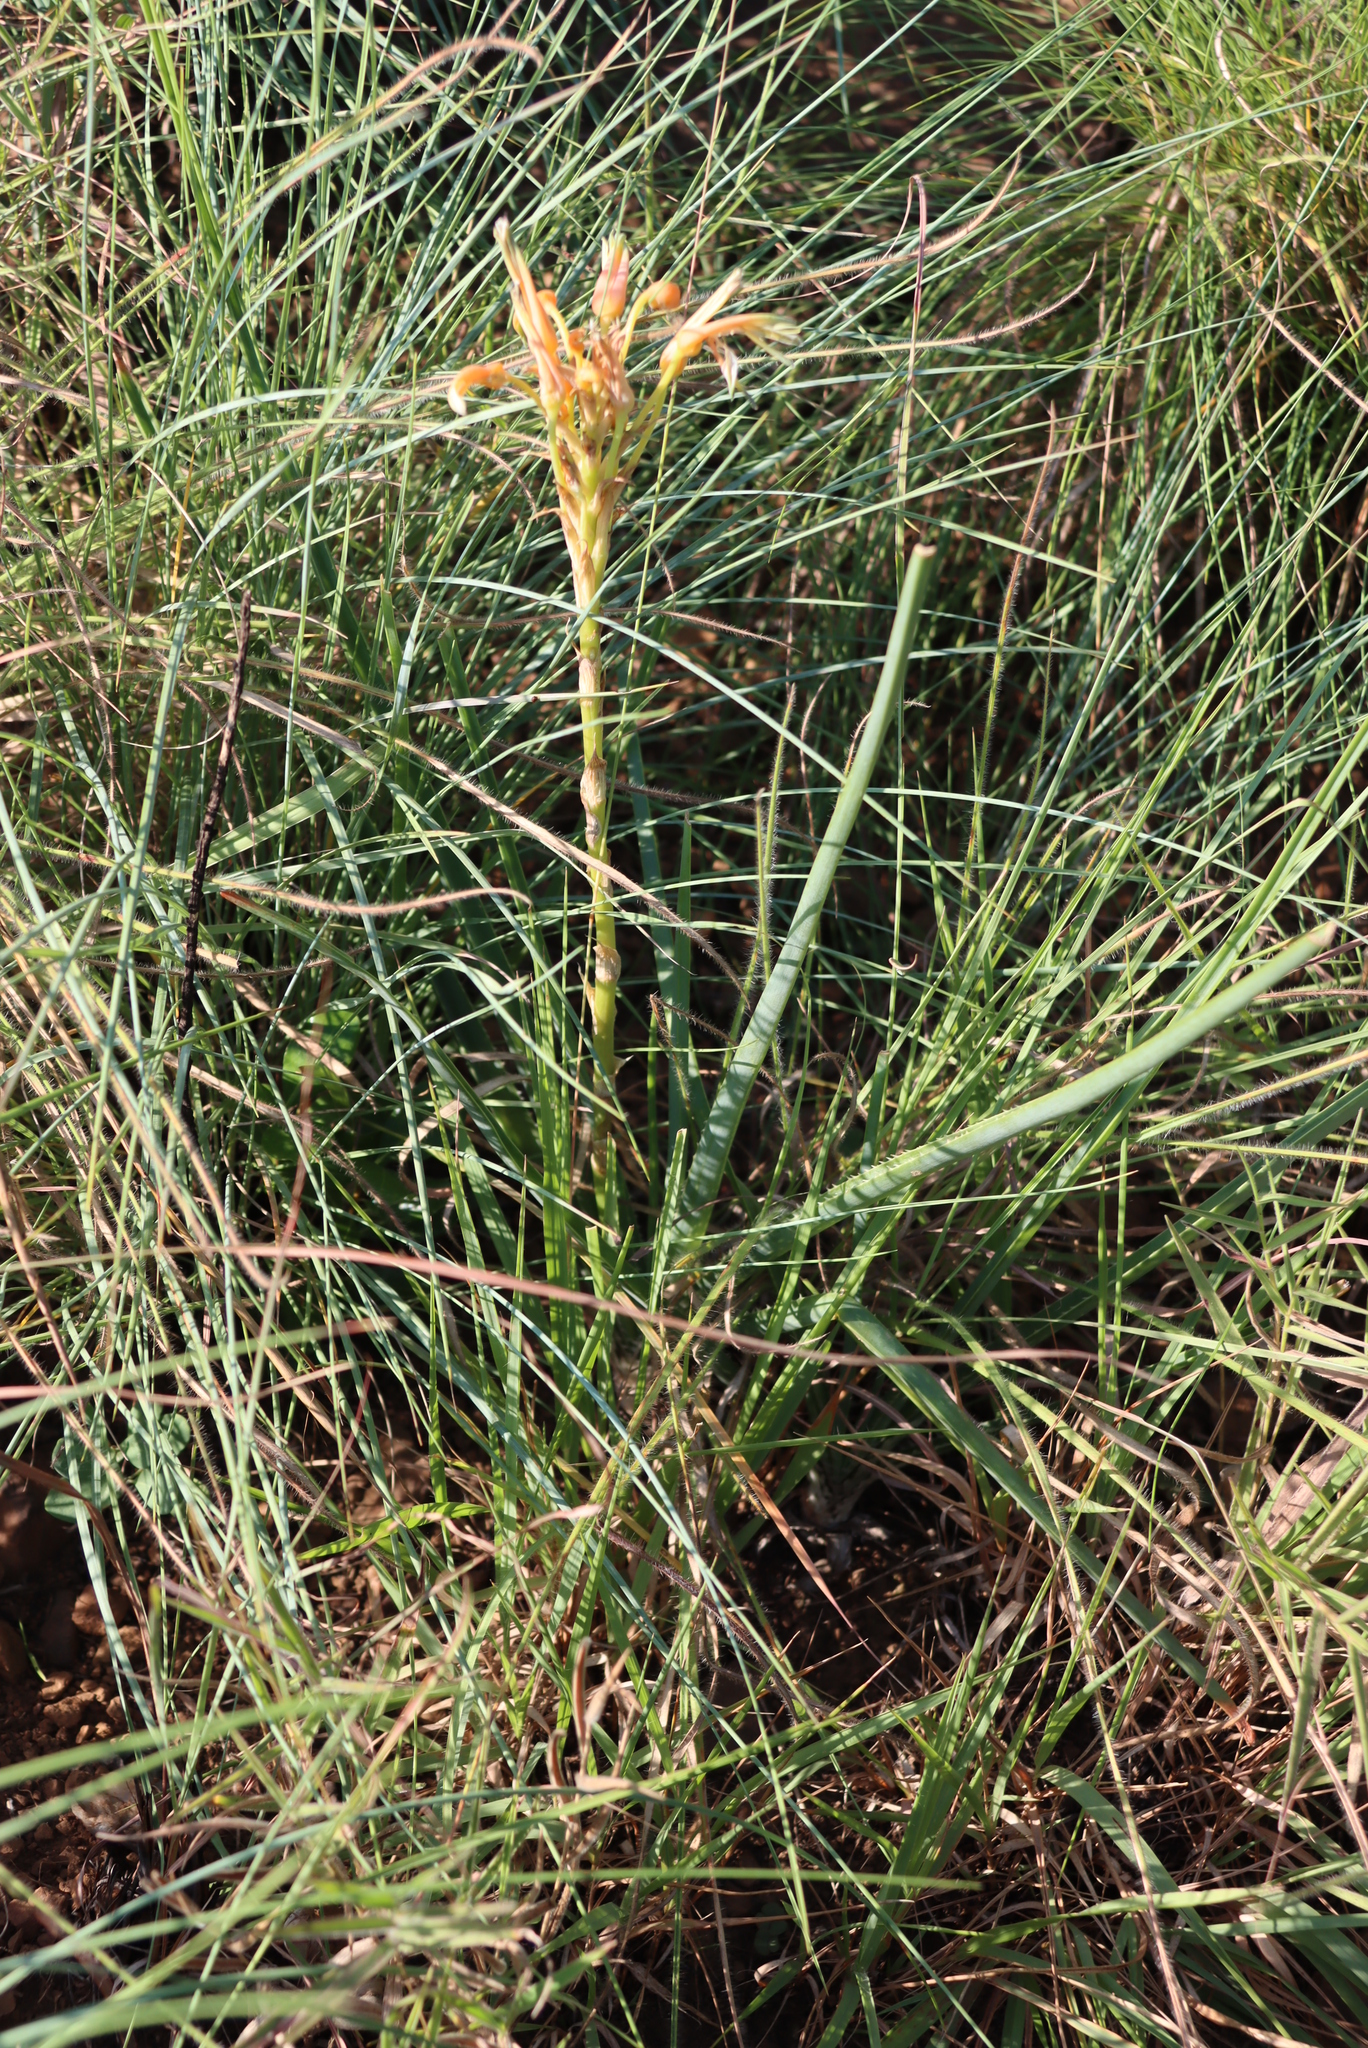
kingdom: Plantae
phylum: Tracheophyta
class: Liliopsida
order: Asparagales
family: Asphodelaceae
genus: Aloe
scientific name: Aloe cooperi
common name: Cooper's aloe
